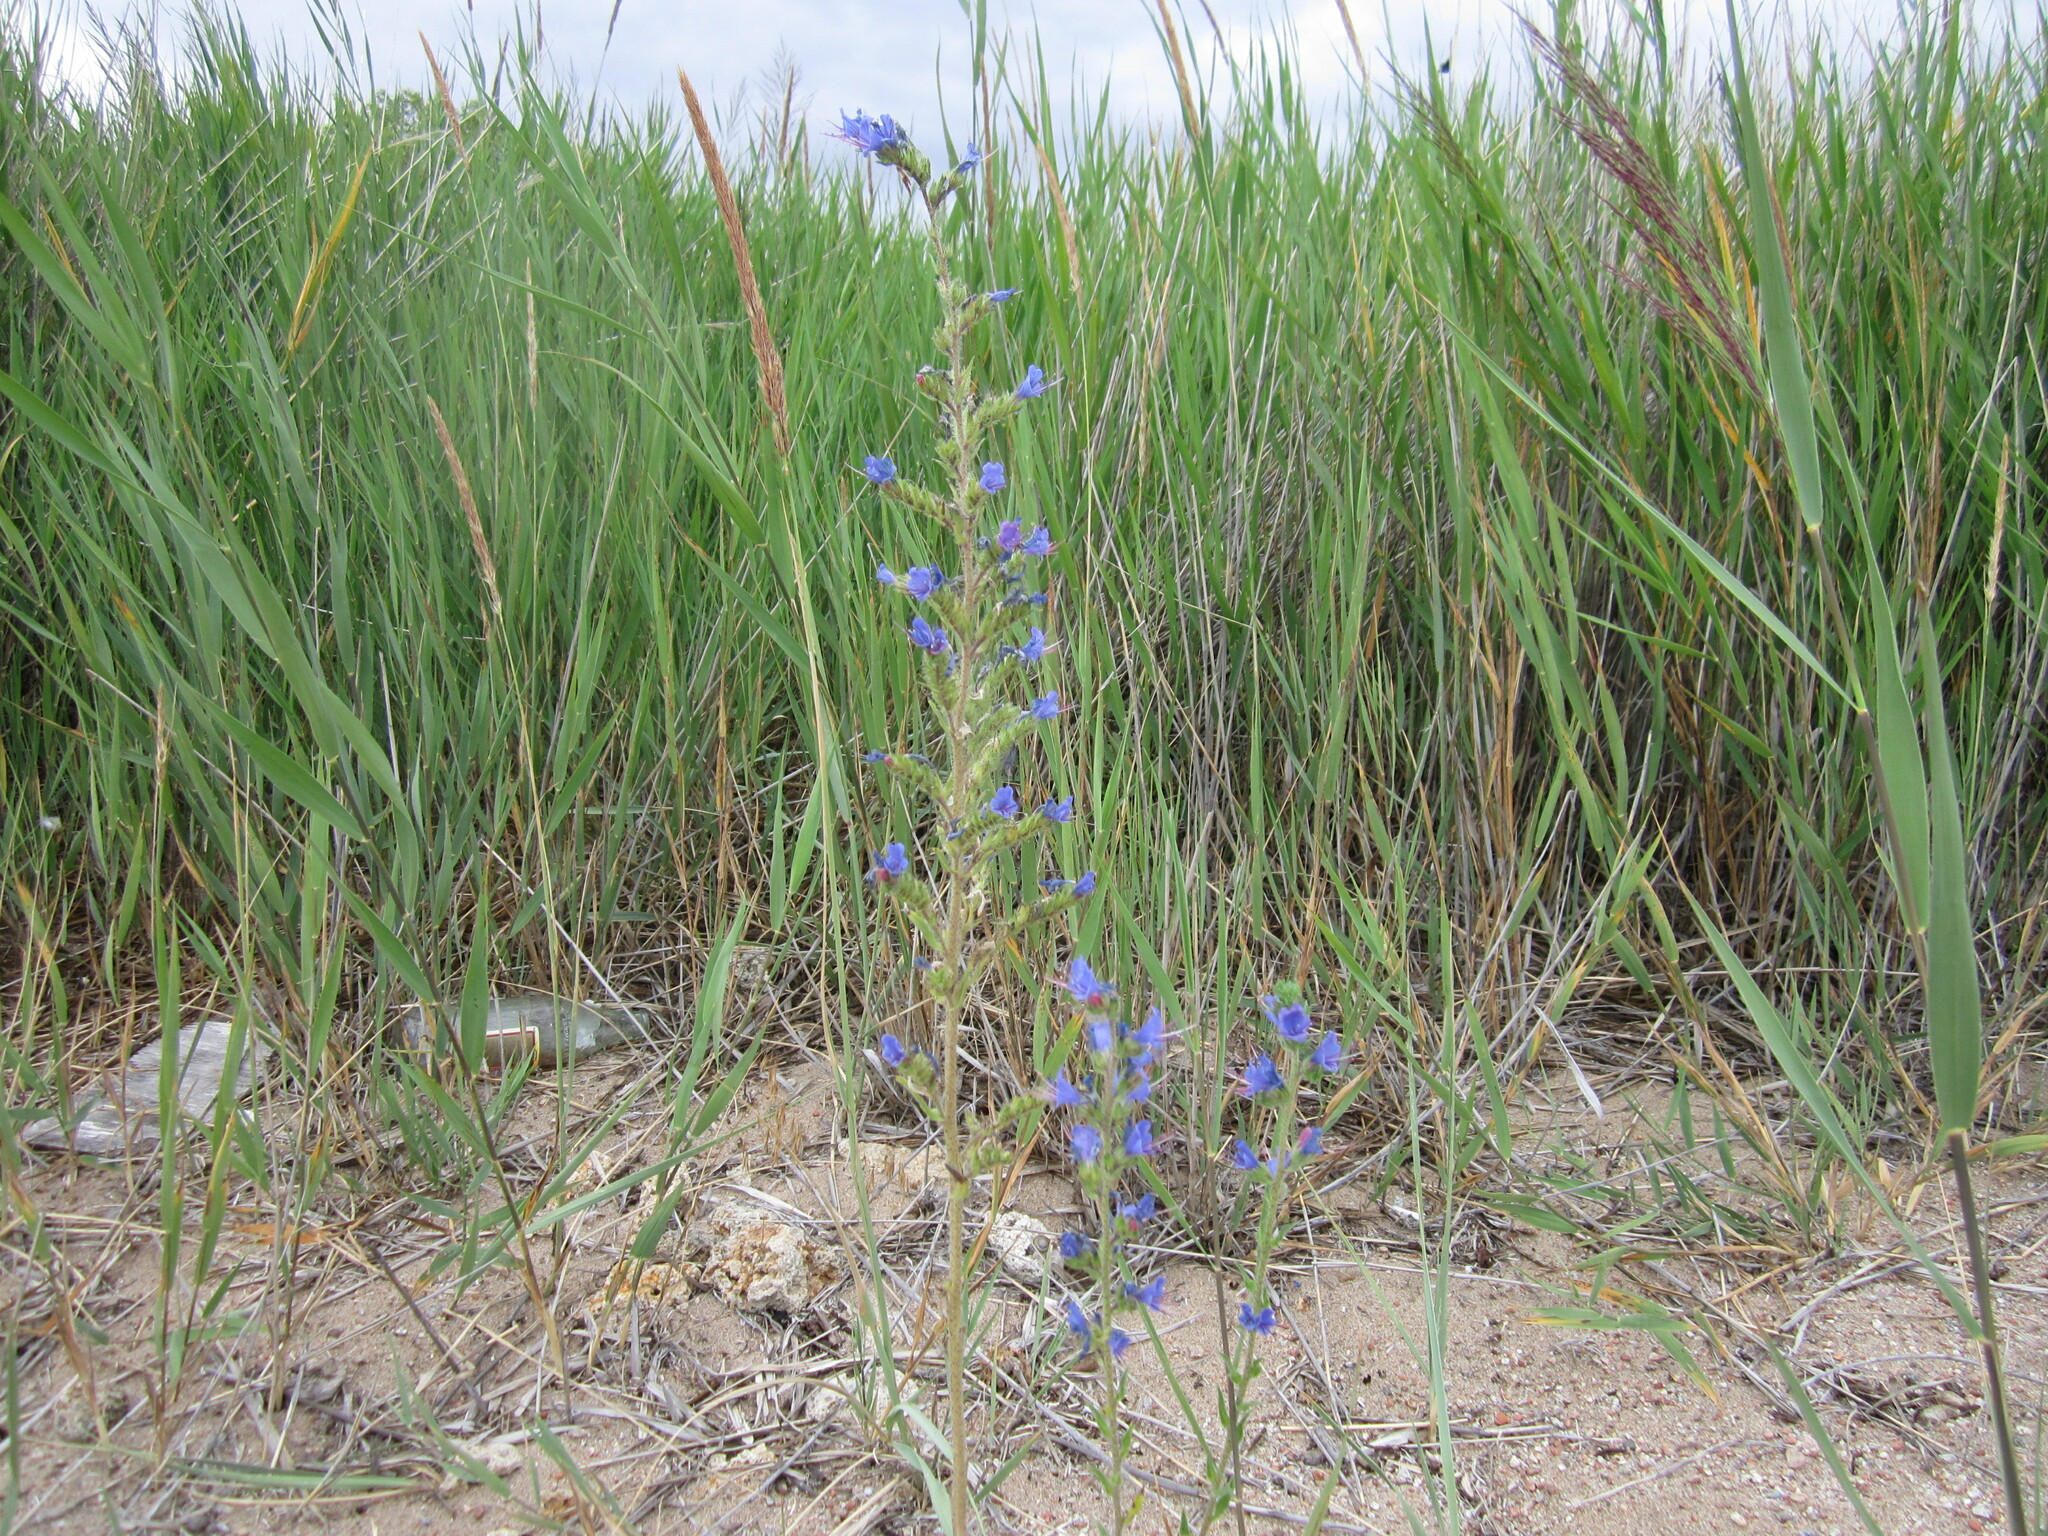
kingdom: Plantae
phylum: Tracheophyta
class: Magnoliopsida
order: Boraginales
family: Boraginaceae
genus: Echium
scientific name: Echium vulgare
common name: Common viper's bugloss
